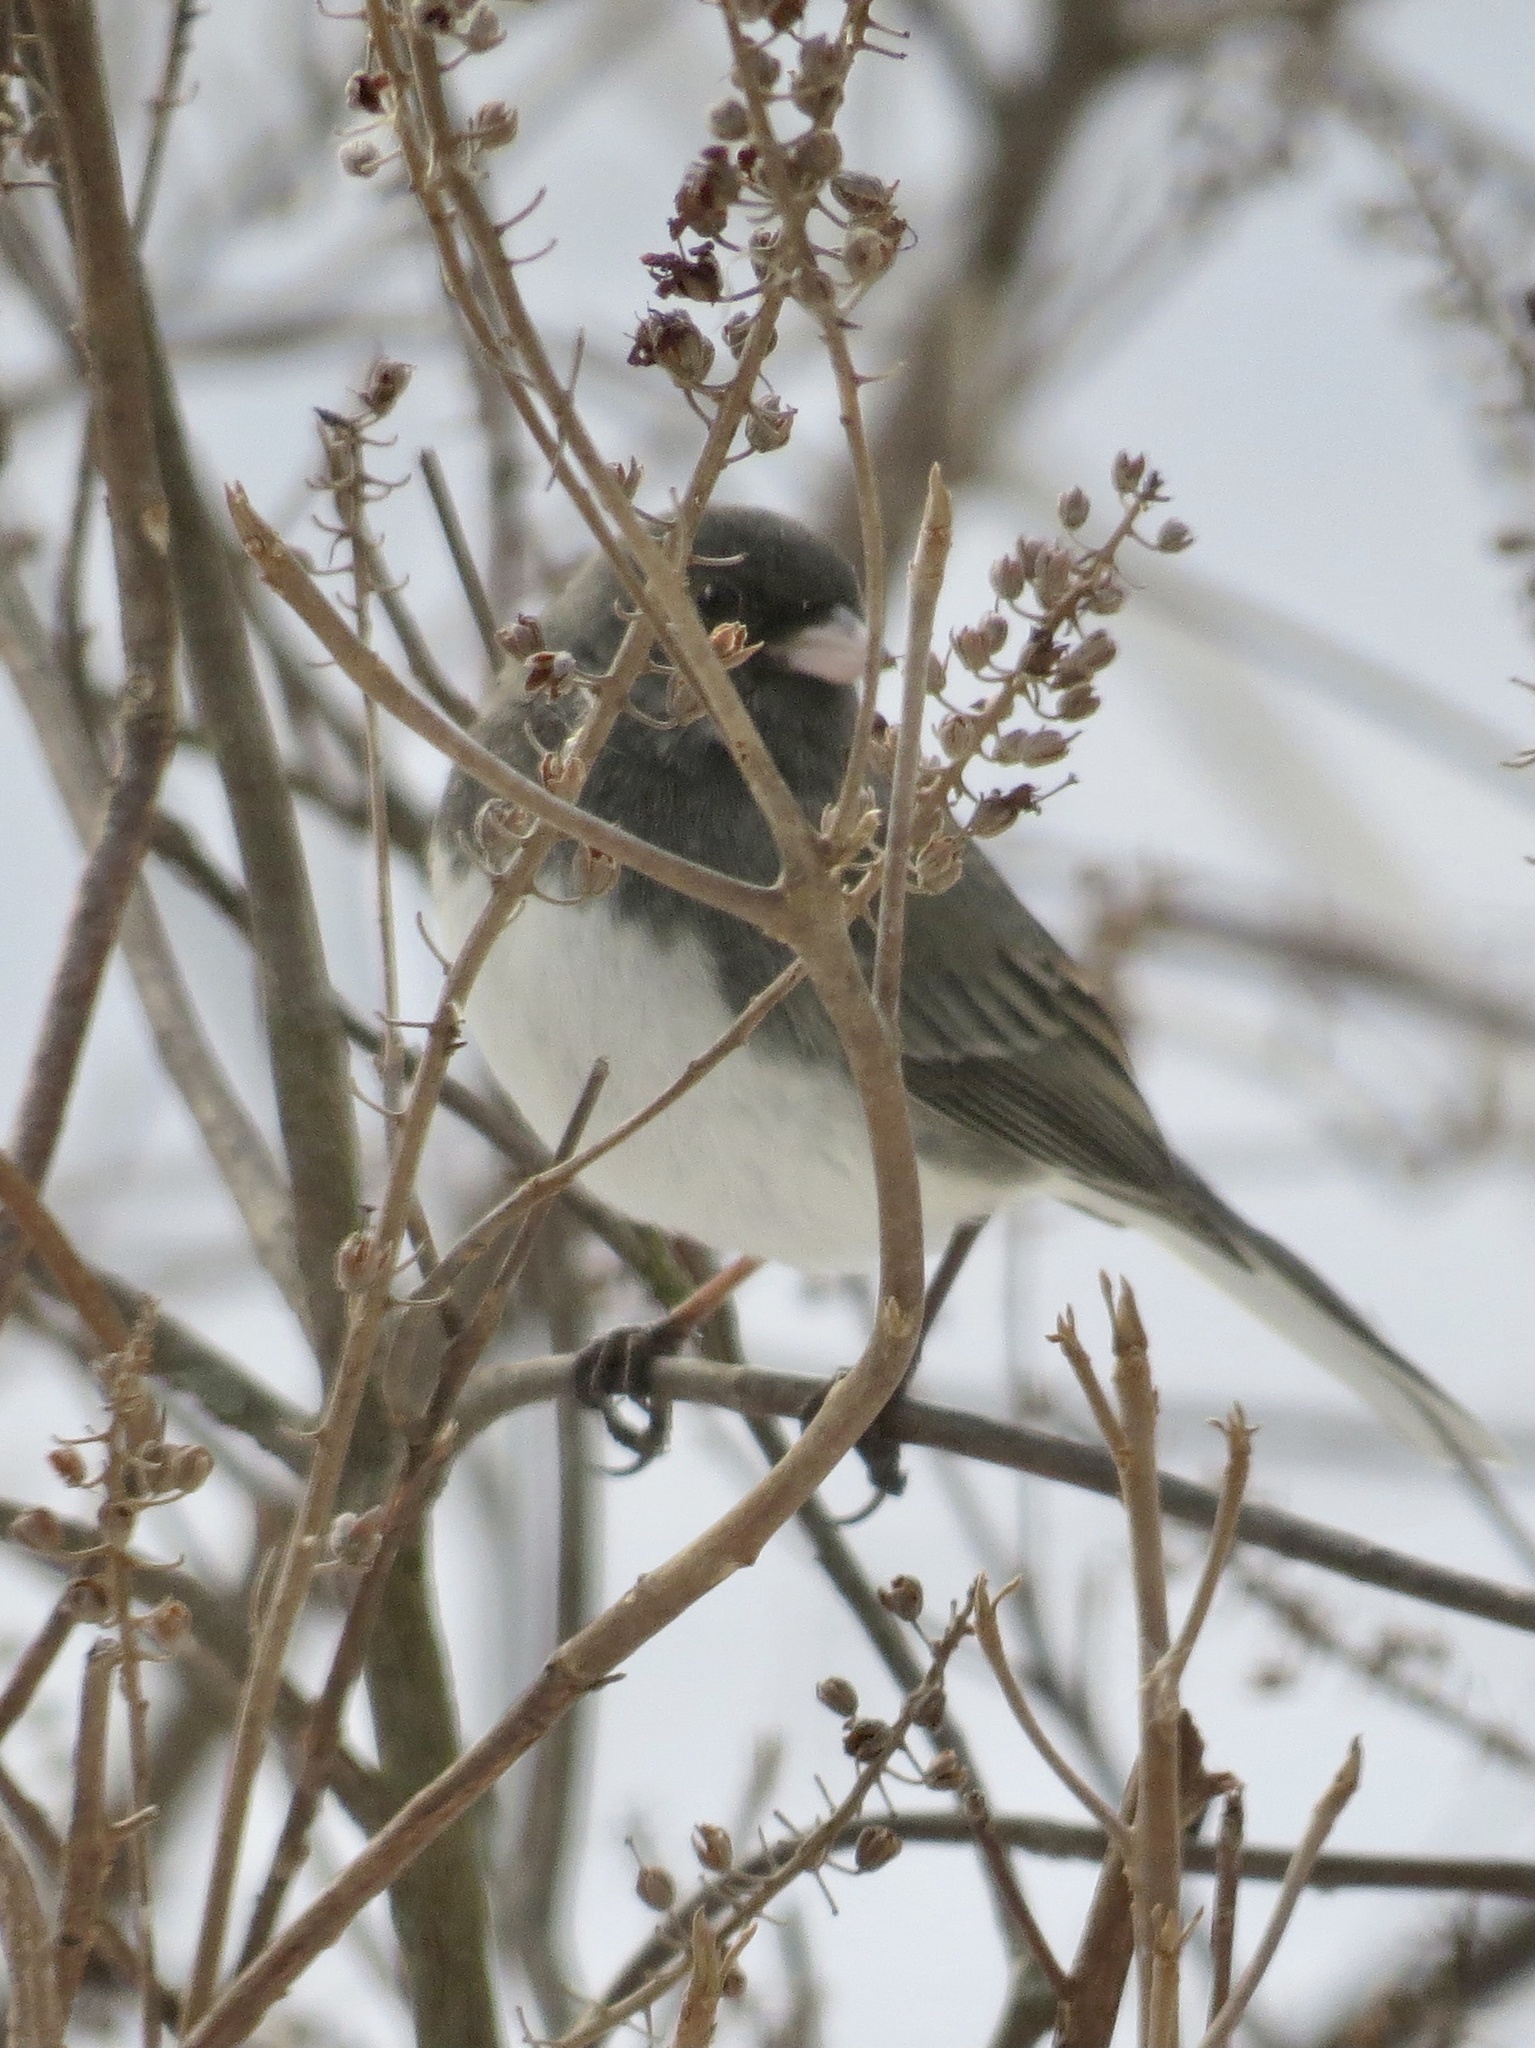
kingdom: Animalia
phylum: Chordata
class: Aves
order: Passeriformes
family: Passerellidae
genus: Junco
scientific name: Junco hyemalis
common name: Dark-eyed junco
